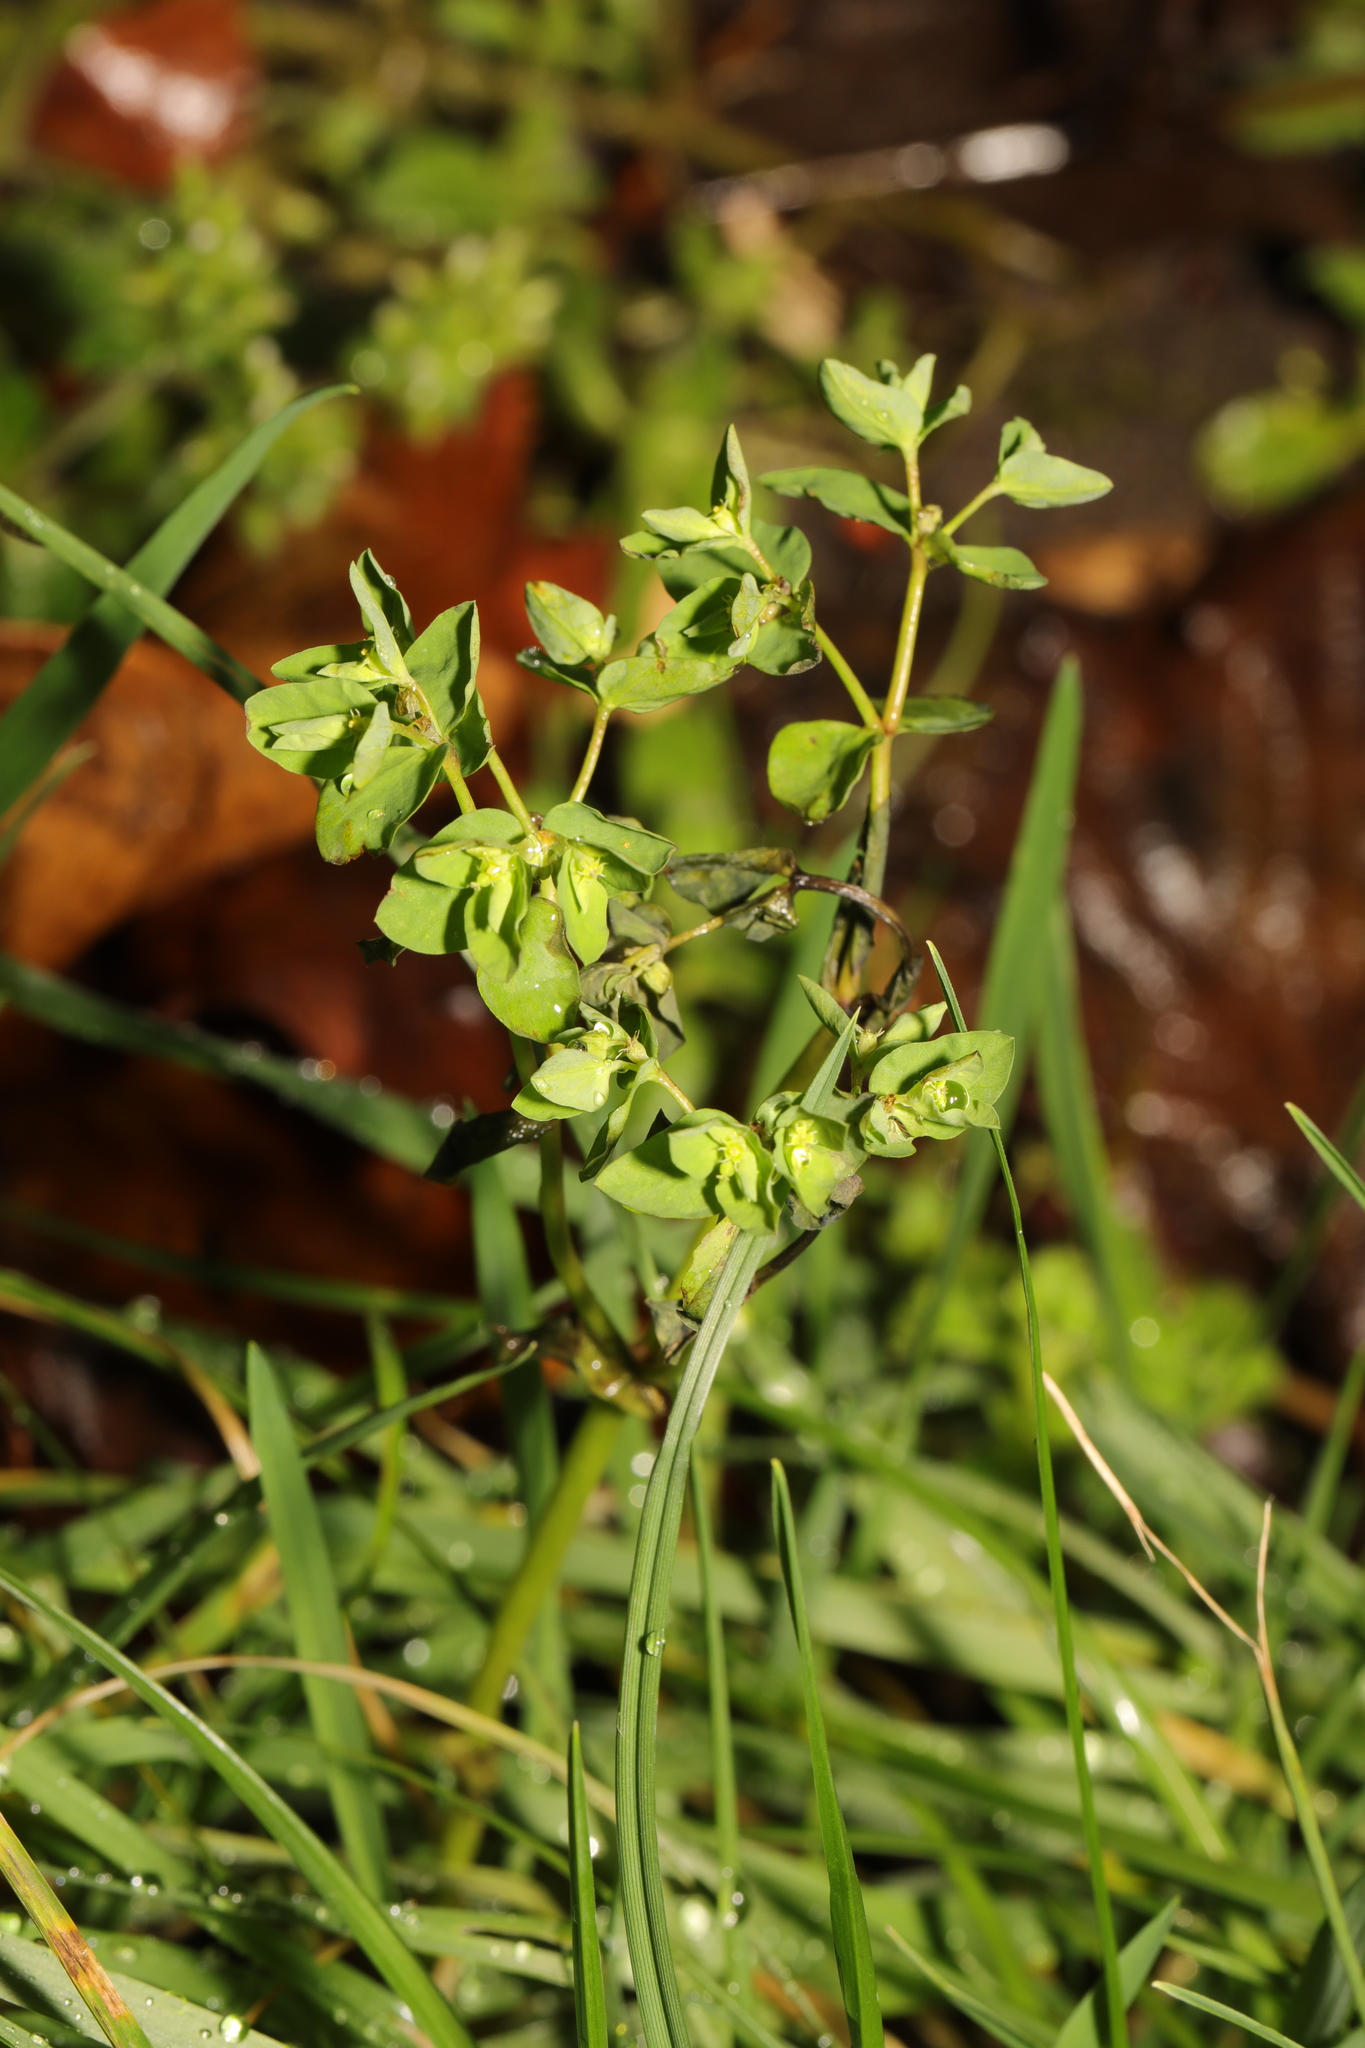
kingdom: Plantae
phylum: Tracheophyta
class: Magnoliopsida
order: Malpighiales
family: Euphorbiaceae
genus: Euphorbia
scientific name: Euphorbia peplus
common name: Petty spurge
